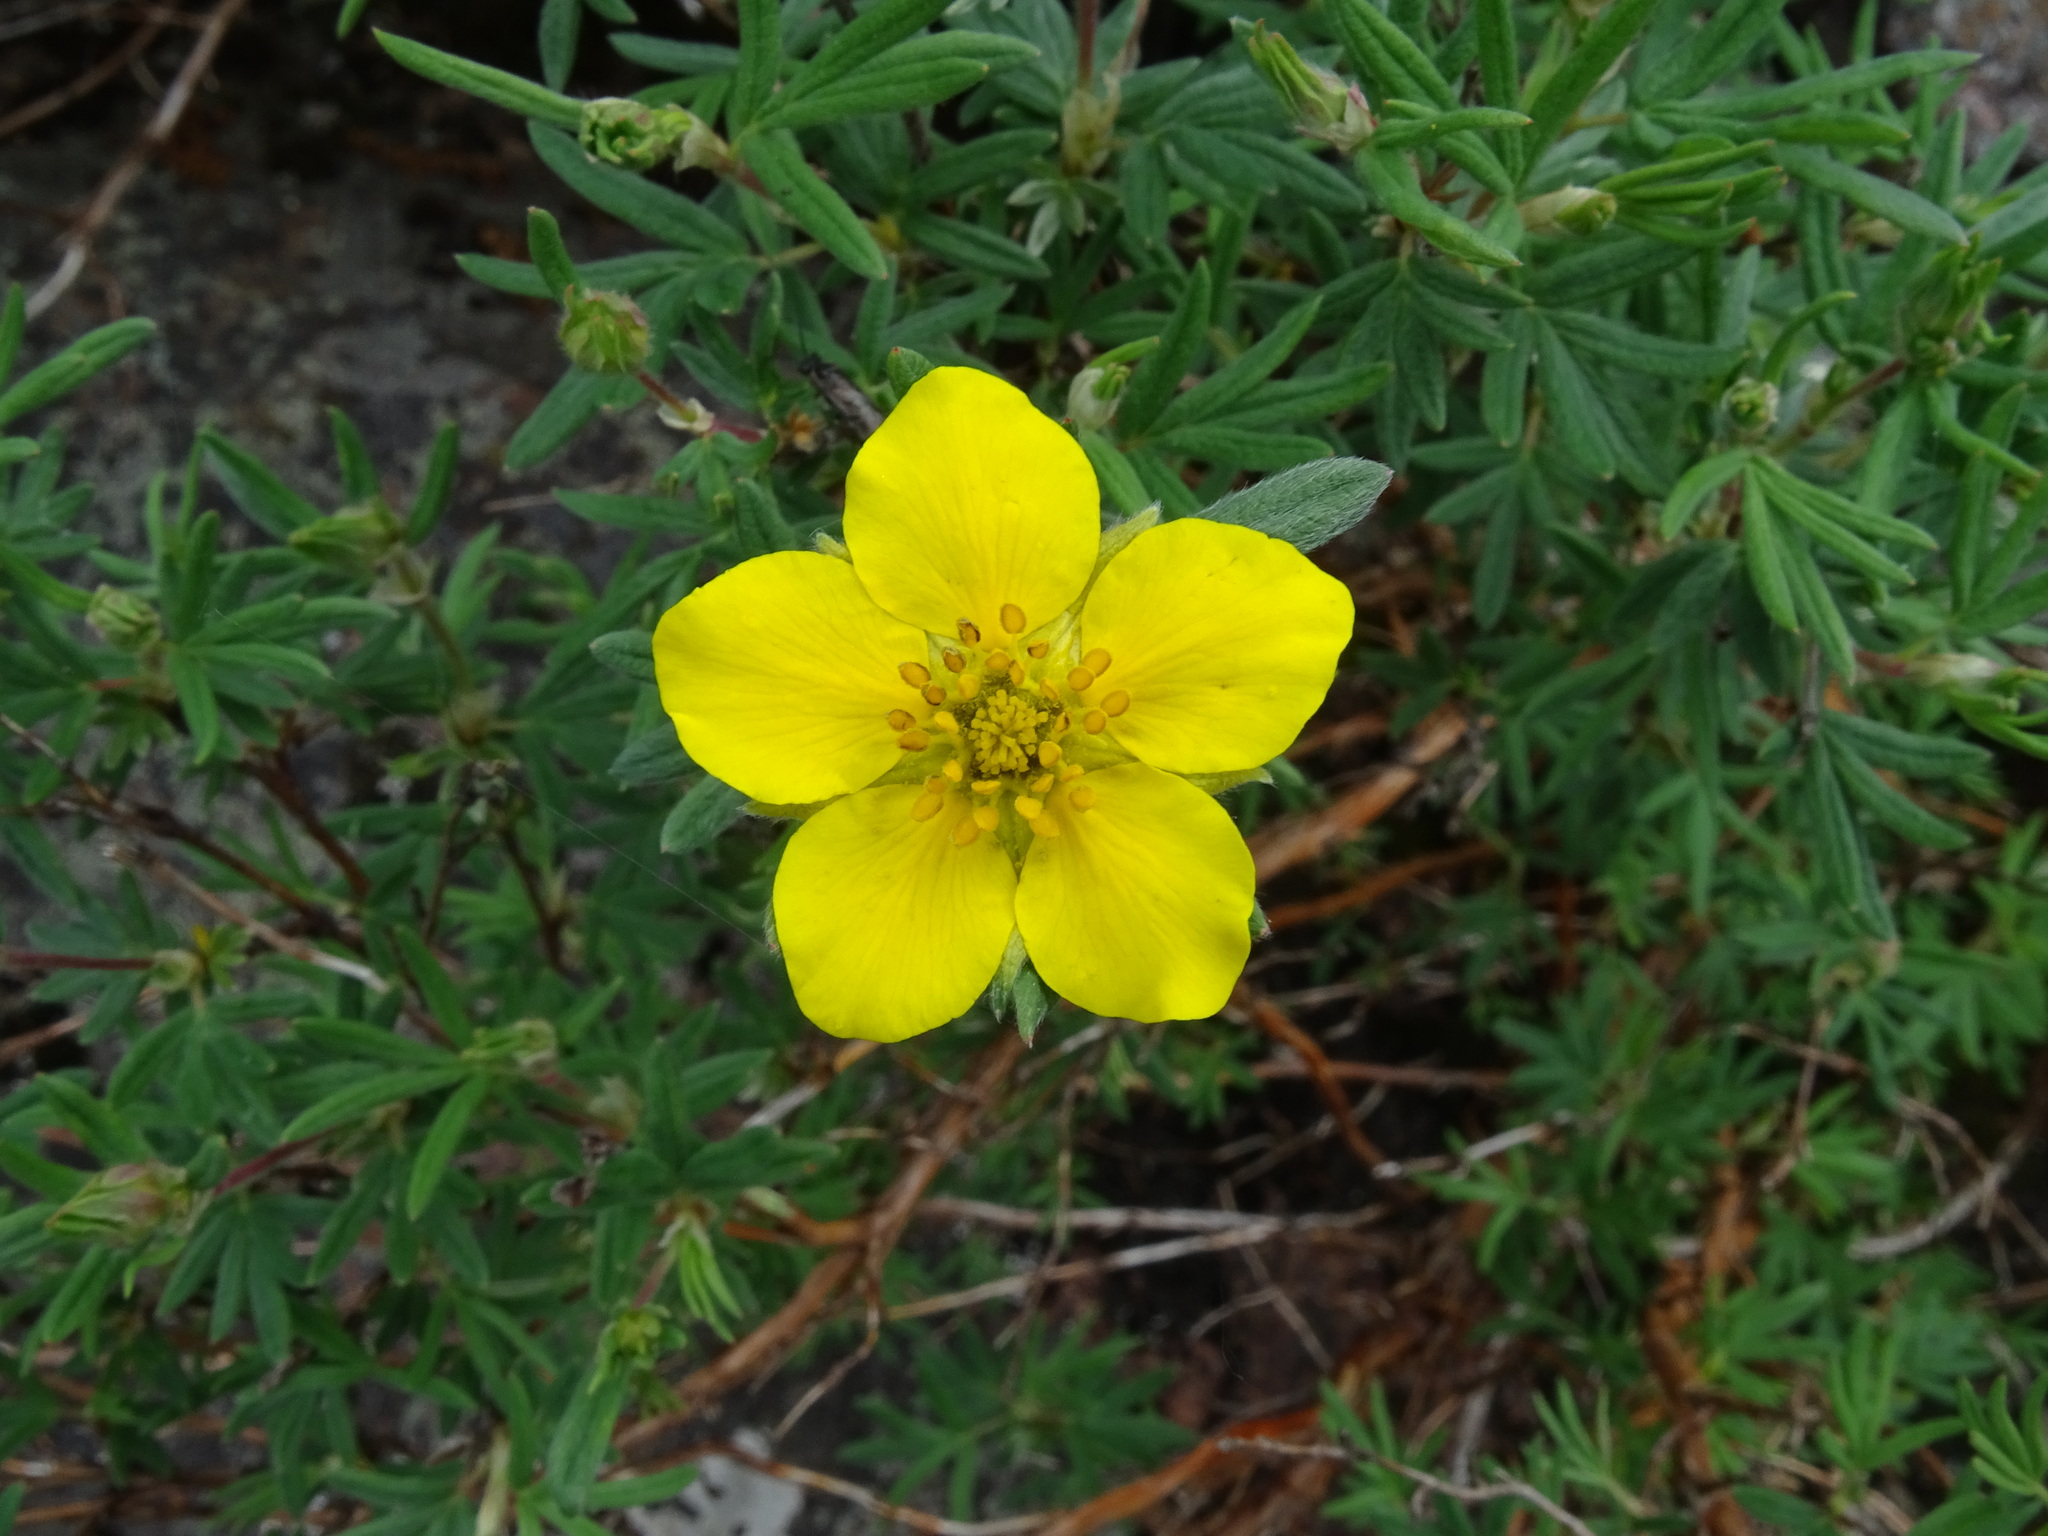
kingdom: Plantae
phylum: Tracheophyta
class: Magnoliopsida
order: Rosales
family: Rosaceae
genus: Dasiphora
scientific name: Dasiphora fruticosa
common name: Shrubby cinquefoil
